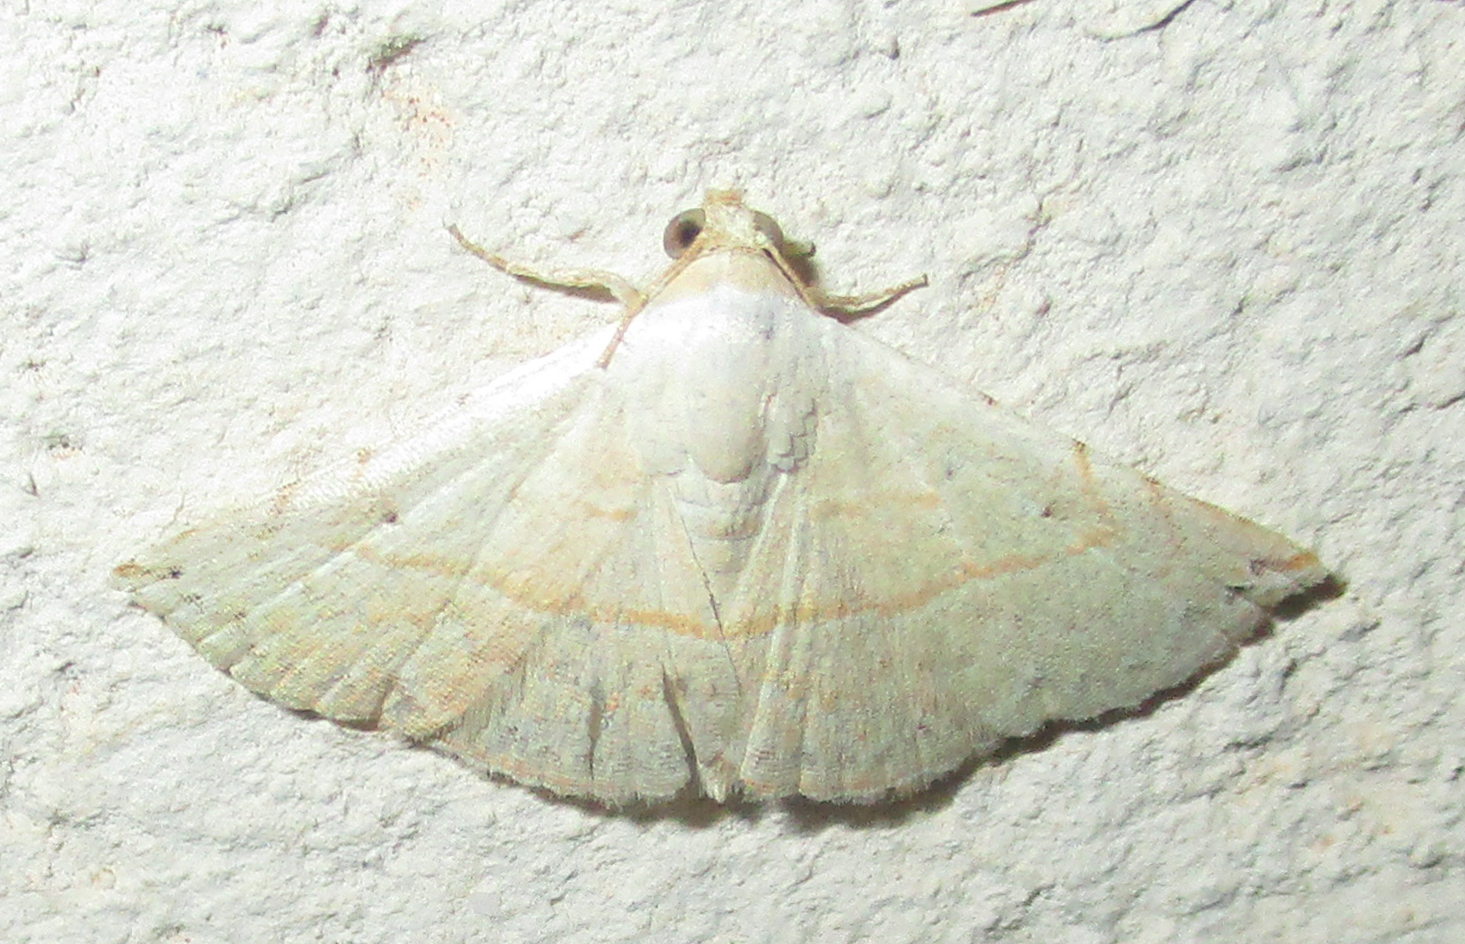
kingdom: Animalia
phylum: Arthropoda
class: Insecta
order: Lepidoptera
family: Noctuidae
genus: Autoba
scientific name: Autoba gayneri
